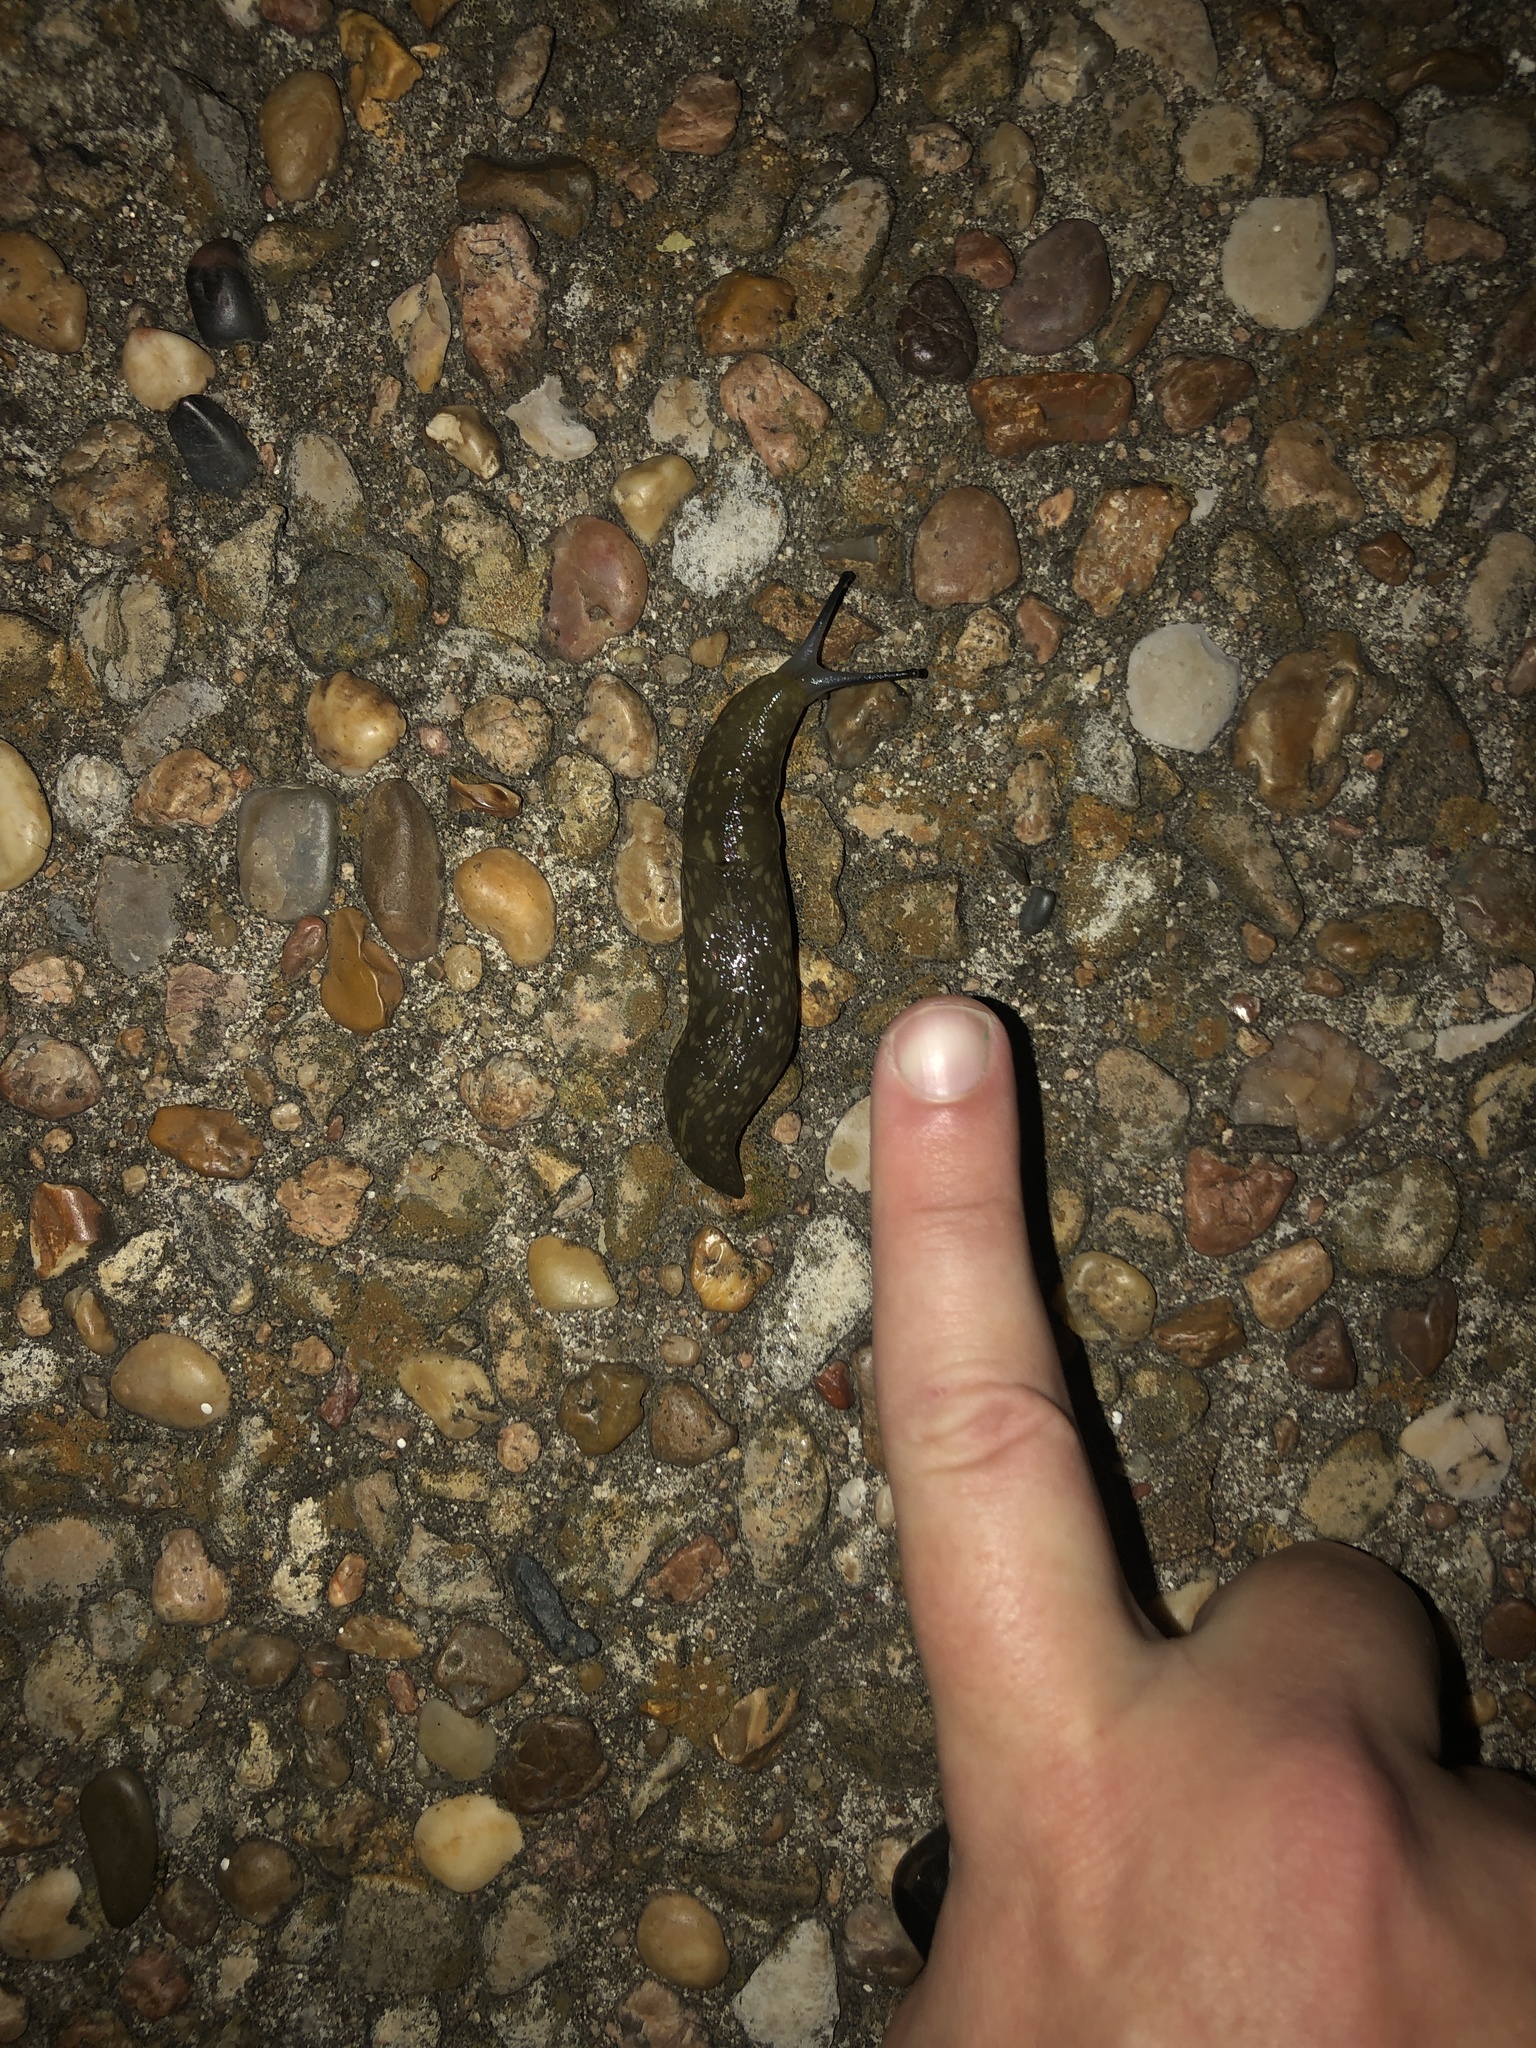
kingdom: Animalia
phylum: Mollusca
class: Gastropoda
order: Stylommatophora
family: Limacidae
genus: Limacus
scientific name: Limacus flavus
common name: Yellow gardenslug
